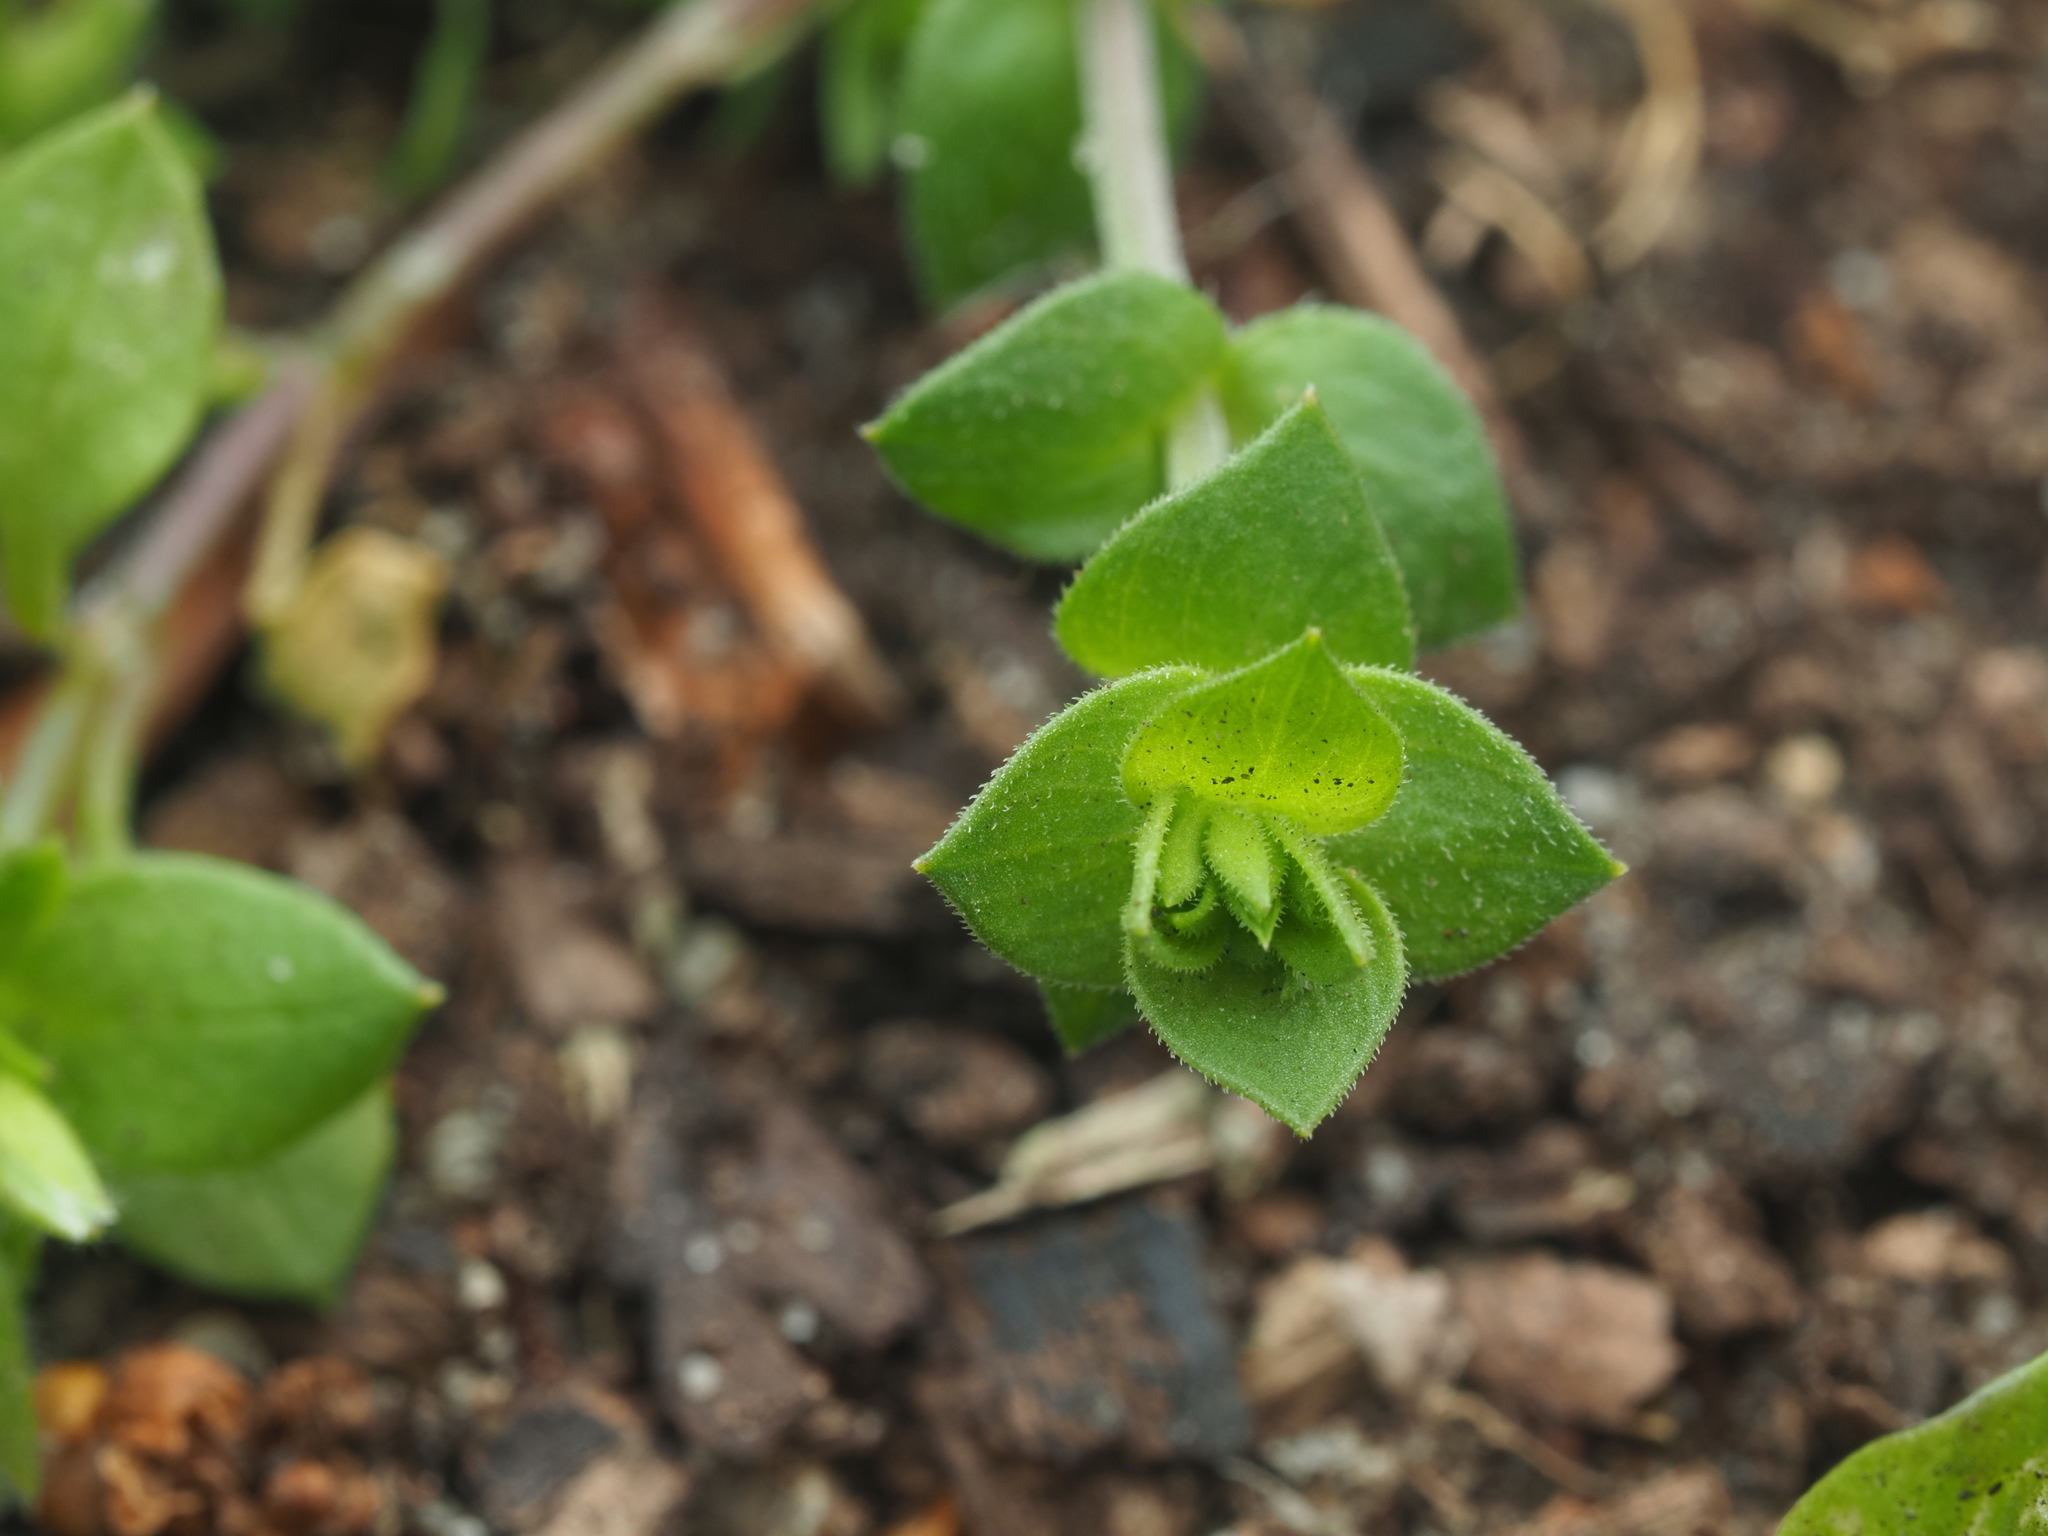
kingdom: Plantae
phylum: Tracheophyta
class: Magnoliopsida
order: Caryophyllales
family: Caryophyllaceae
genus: Arenaria
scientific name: Arenaria serpyllifolia
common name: Thyme-leaved sandwort
